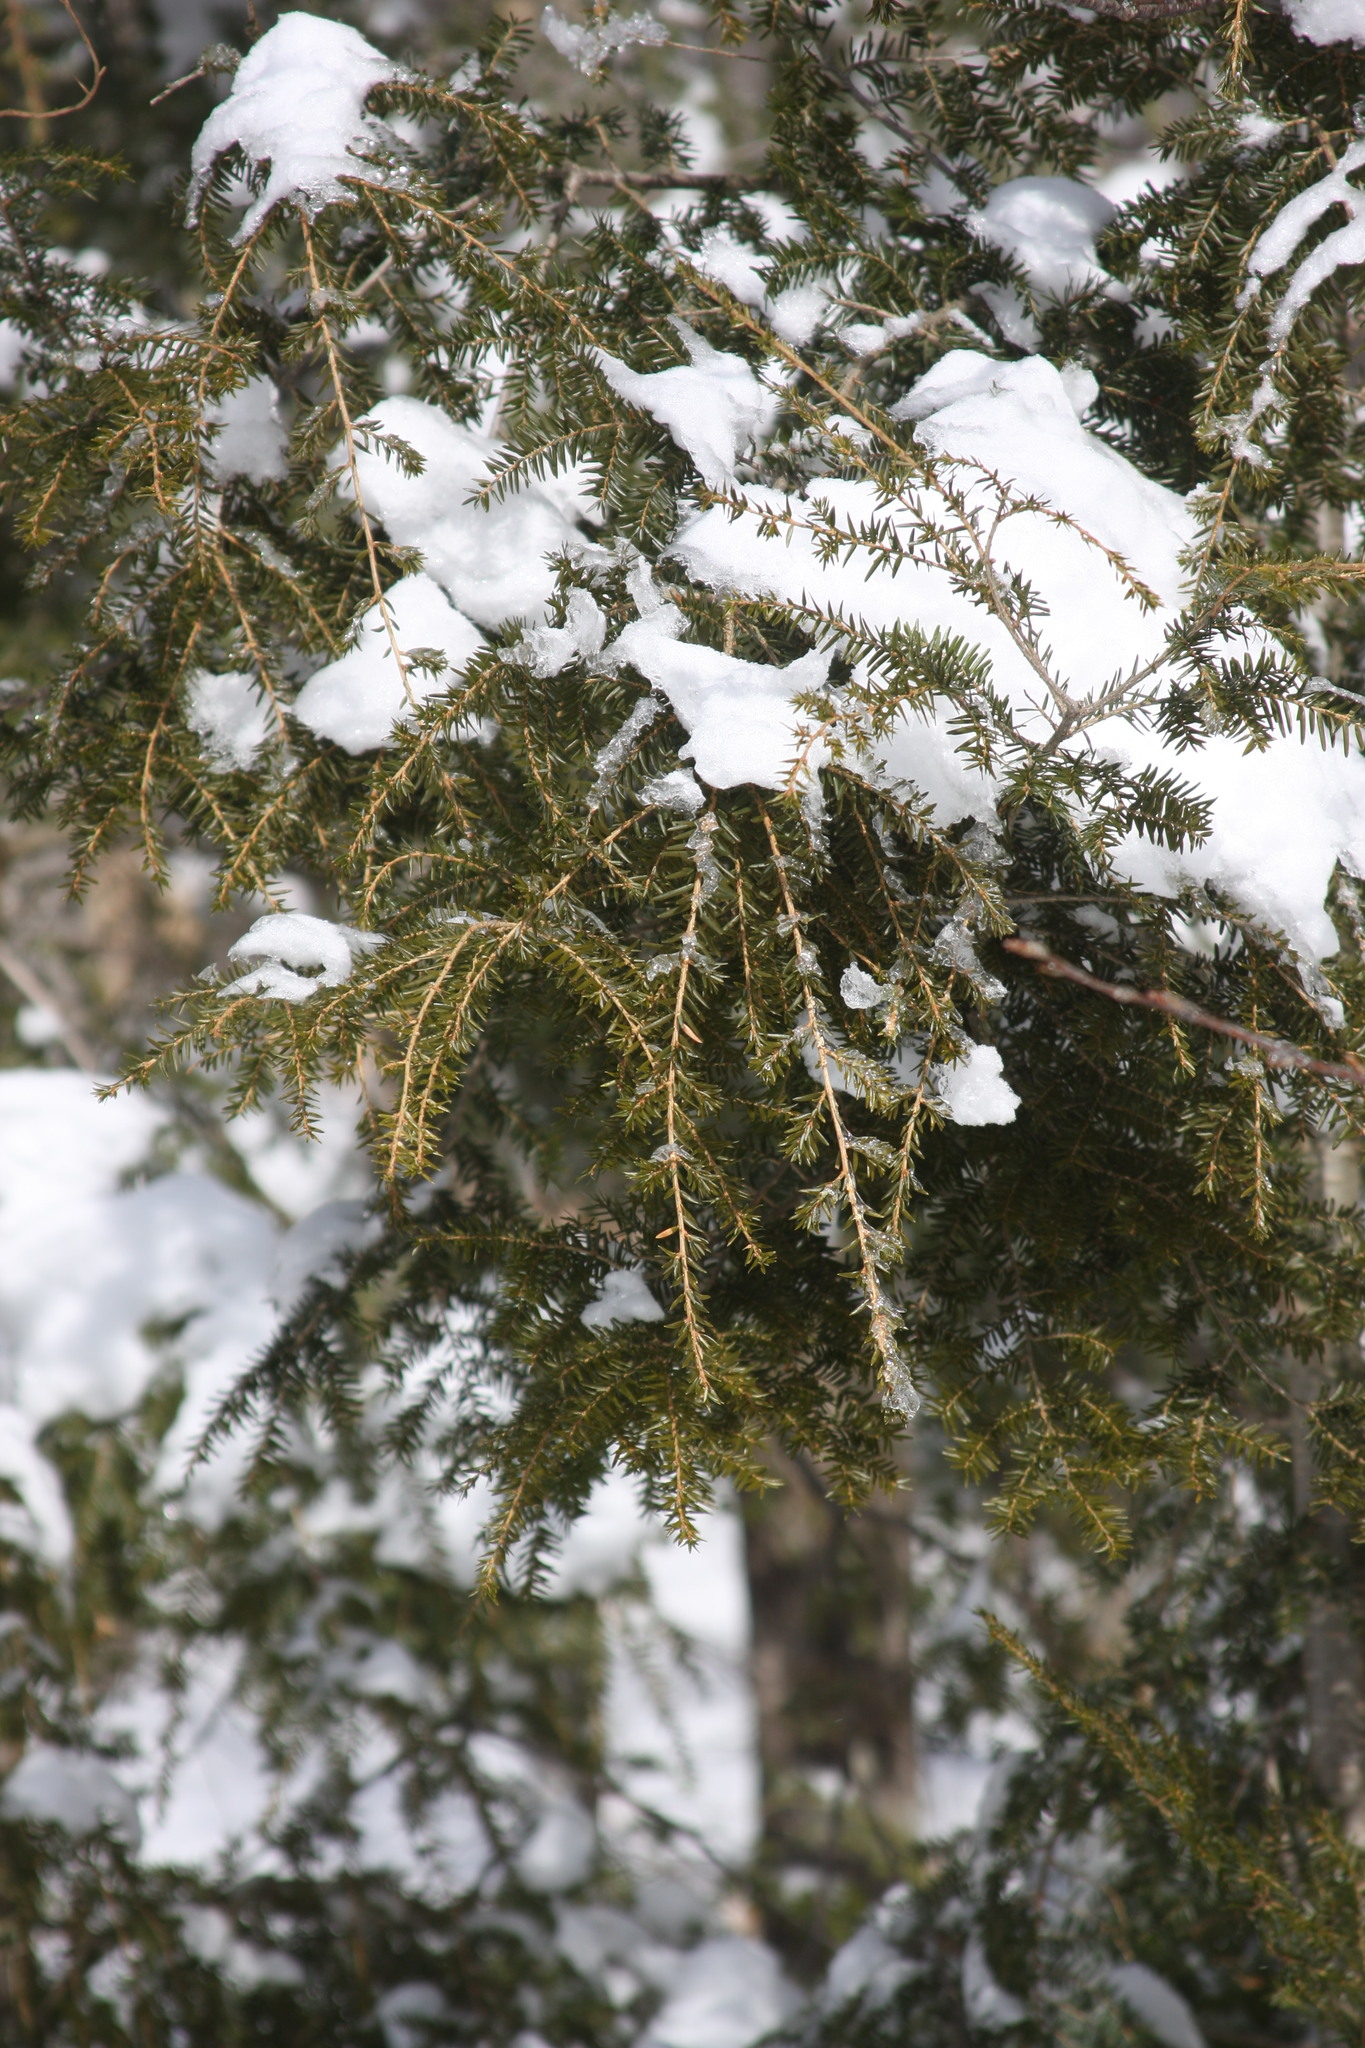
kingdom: Plantae
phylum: Tracheophyta
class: Pinopsida
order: Pinales
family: Pinaceae
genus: Tsuga
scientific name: Tsuga canadensis
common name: Eastern hemlock
